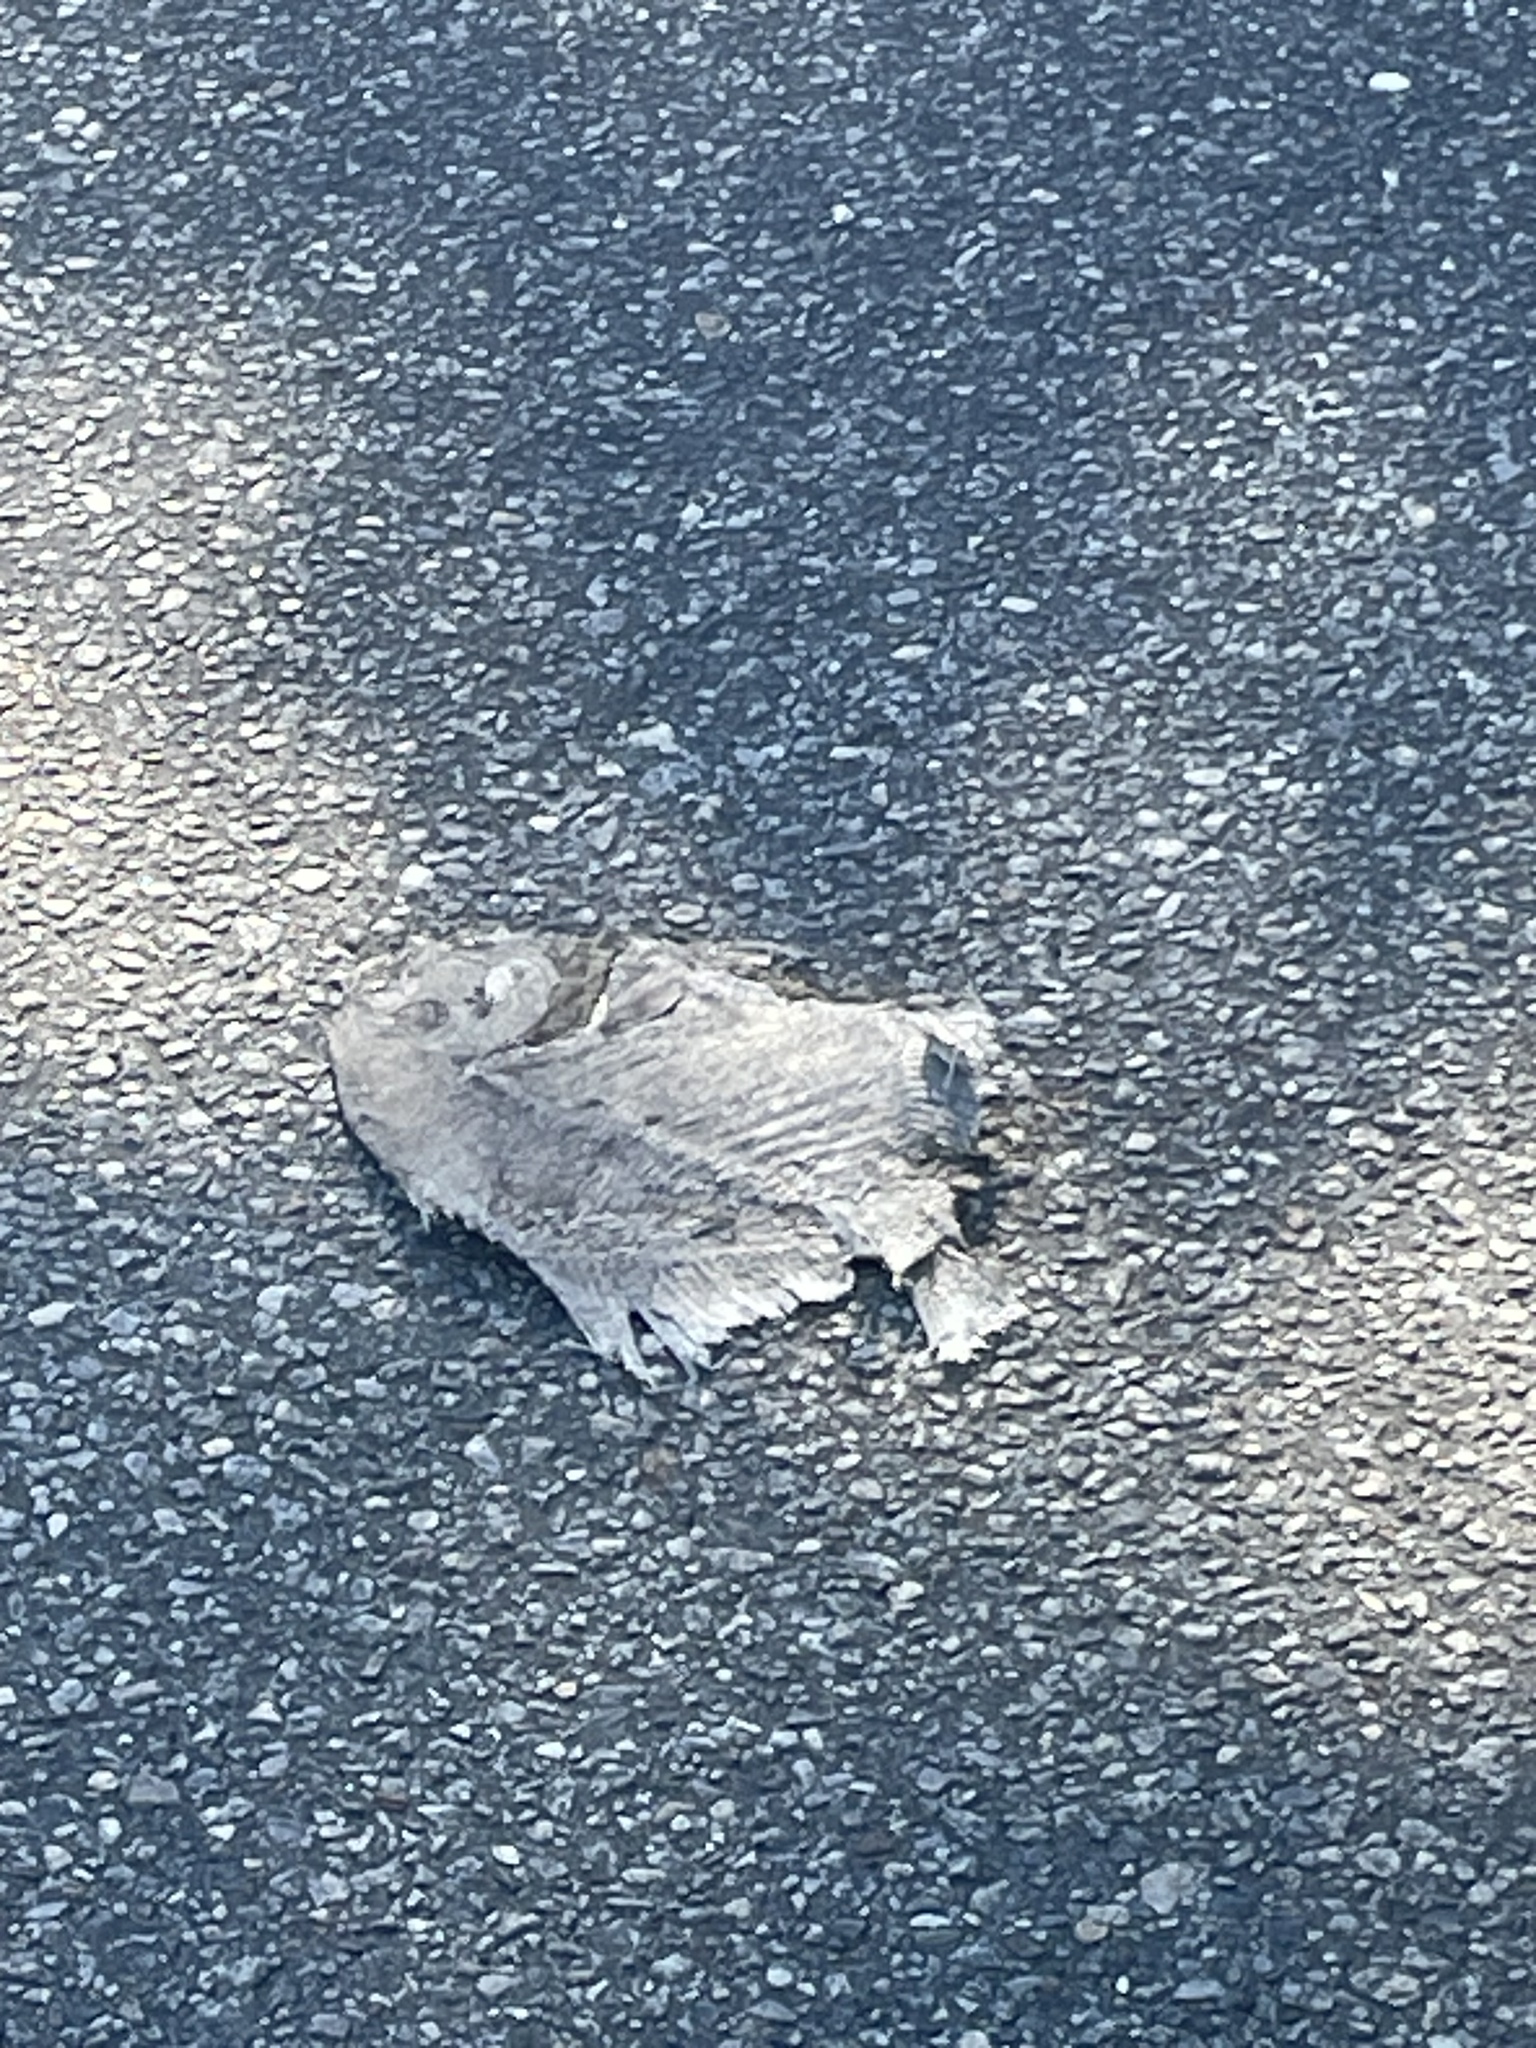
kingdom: Animalia
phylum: Chordata
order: Perciformes
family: Ephippidae
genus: Chaetodipterus
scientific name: Chaetodipterus faber
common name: Ocean cobbler
